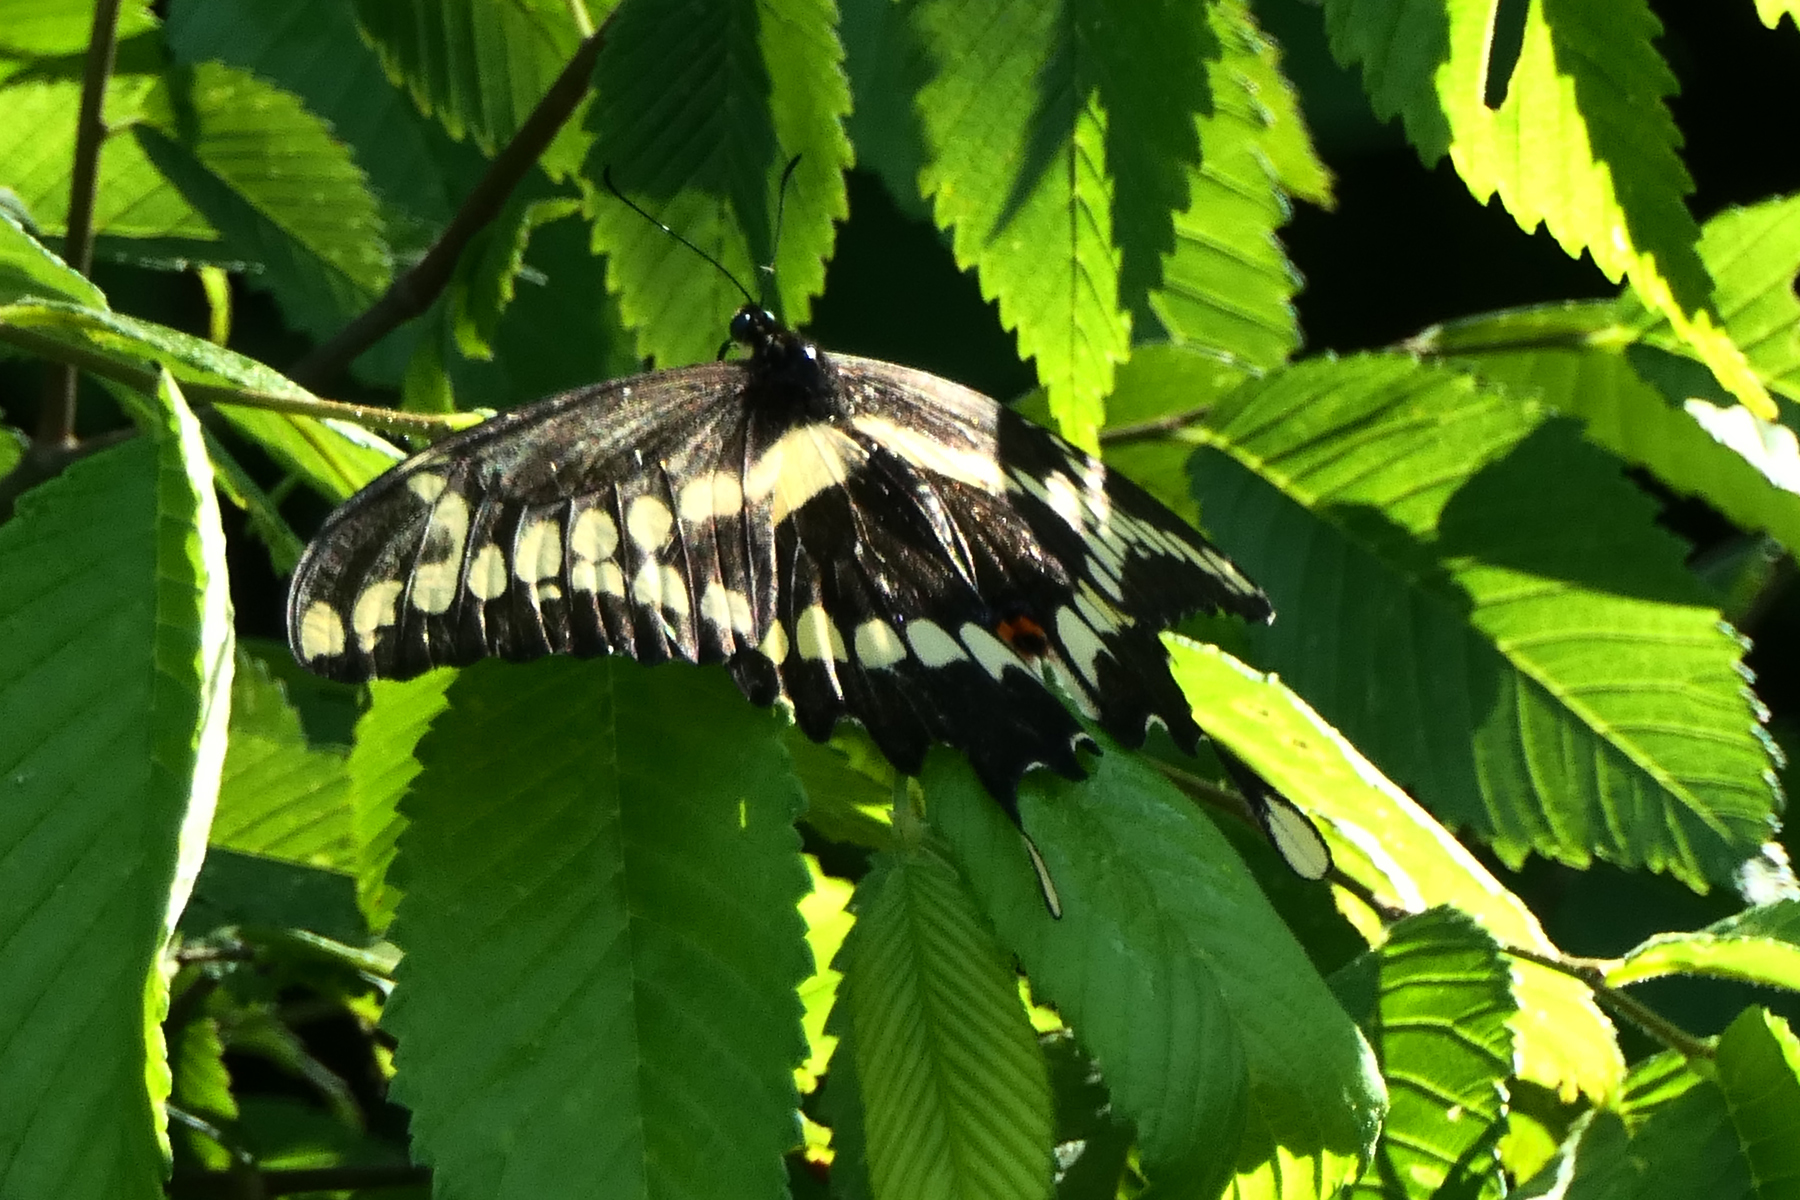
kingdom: Animalia
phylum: Arthropoda
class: Insecta
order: Lepidoptera
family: Papilionidae
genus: Papilio
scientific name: Papilio cresphontes
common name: Giant swallowtail
